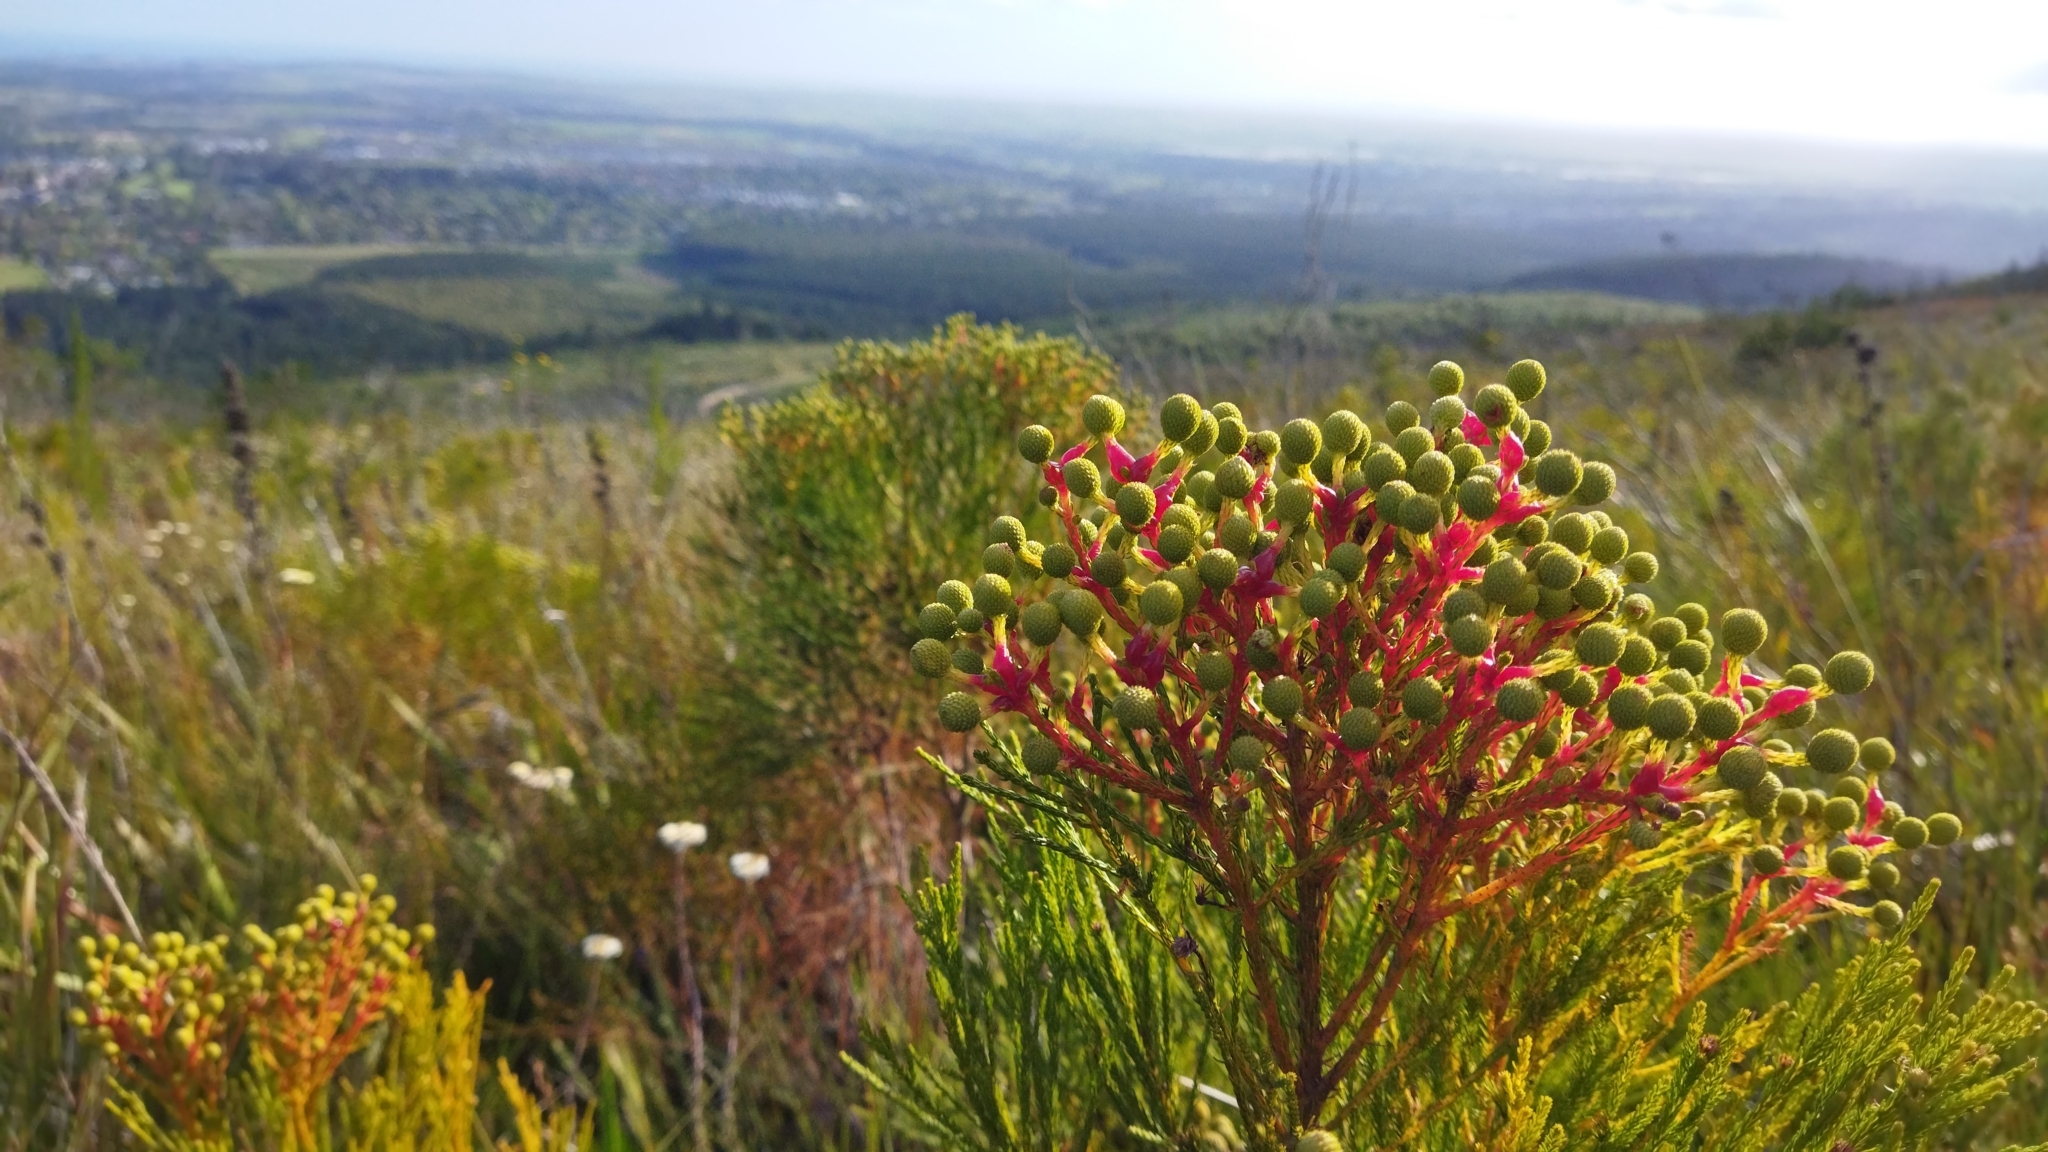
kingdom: Plantae
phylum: Tracheophyta
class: Magnoliopsida
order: Bruniales
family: Bruniaceae
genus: Berzelia
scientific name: Berzelia abrotanoides
